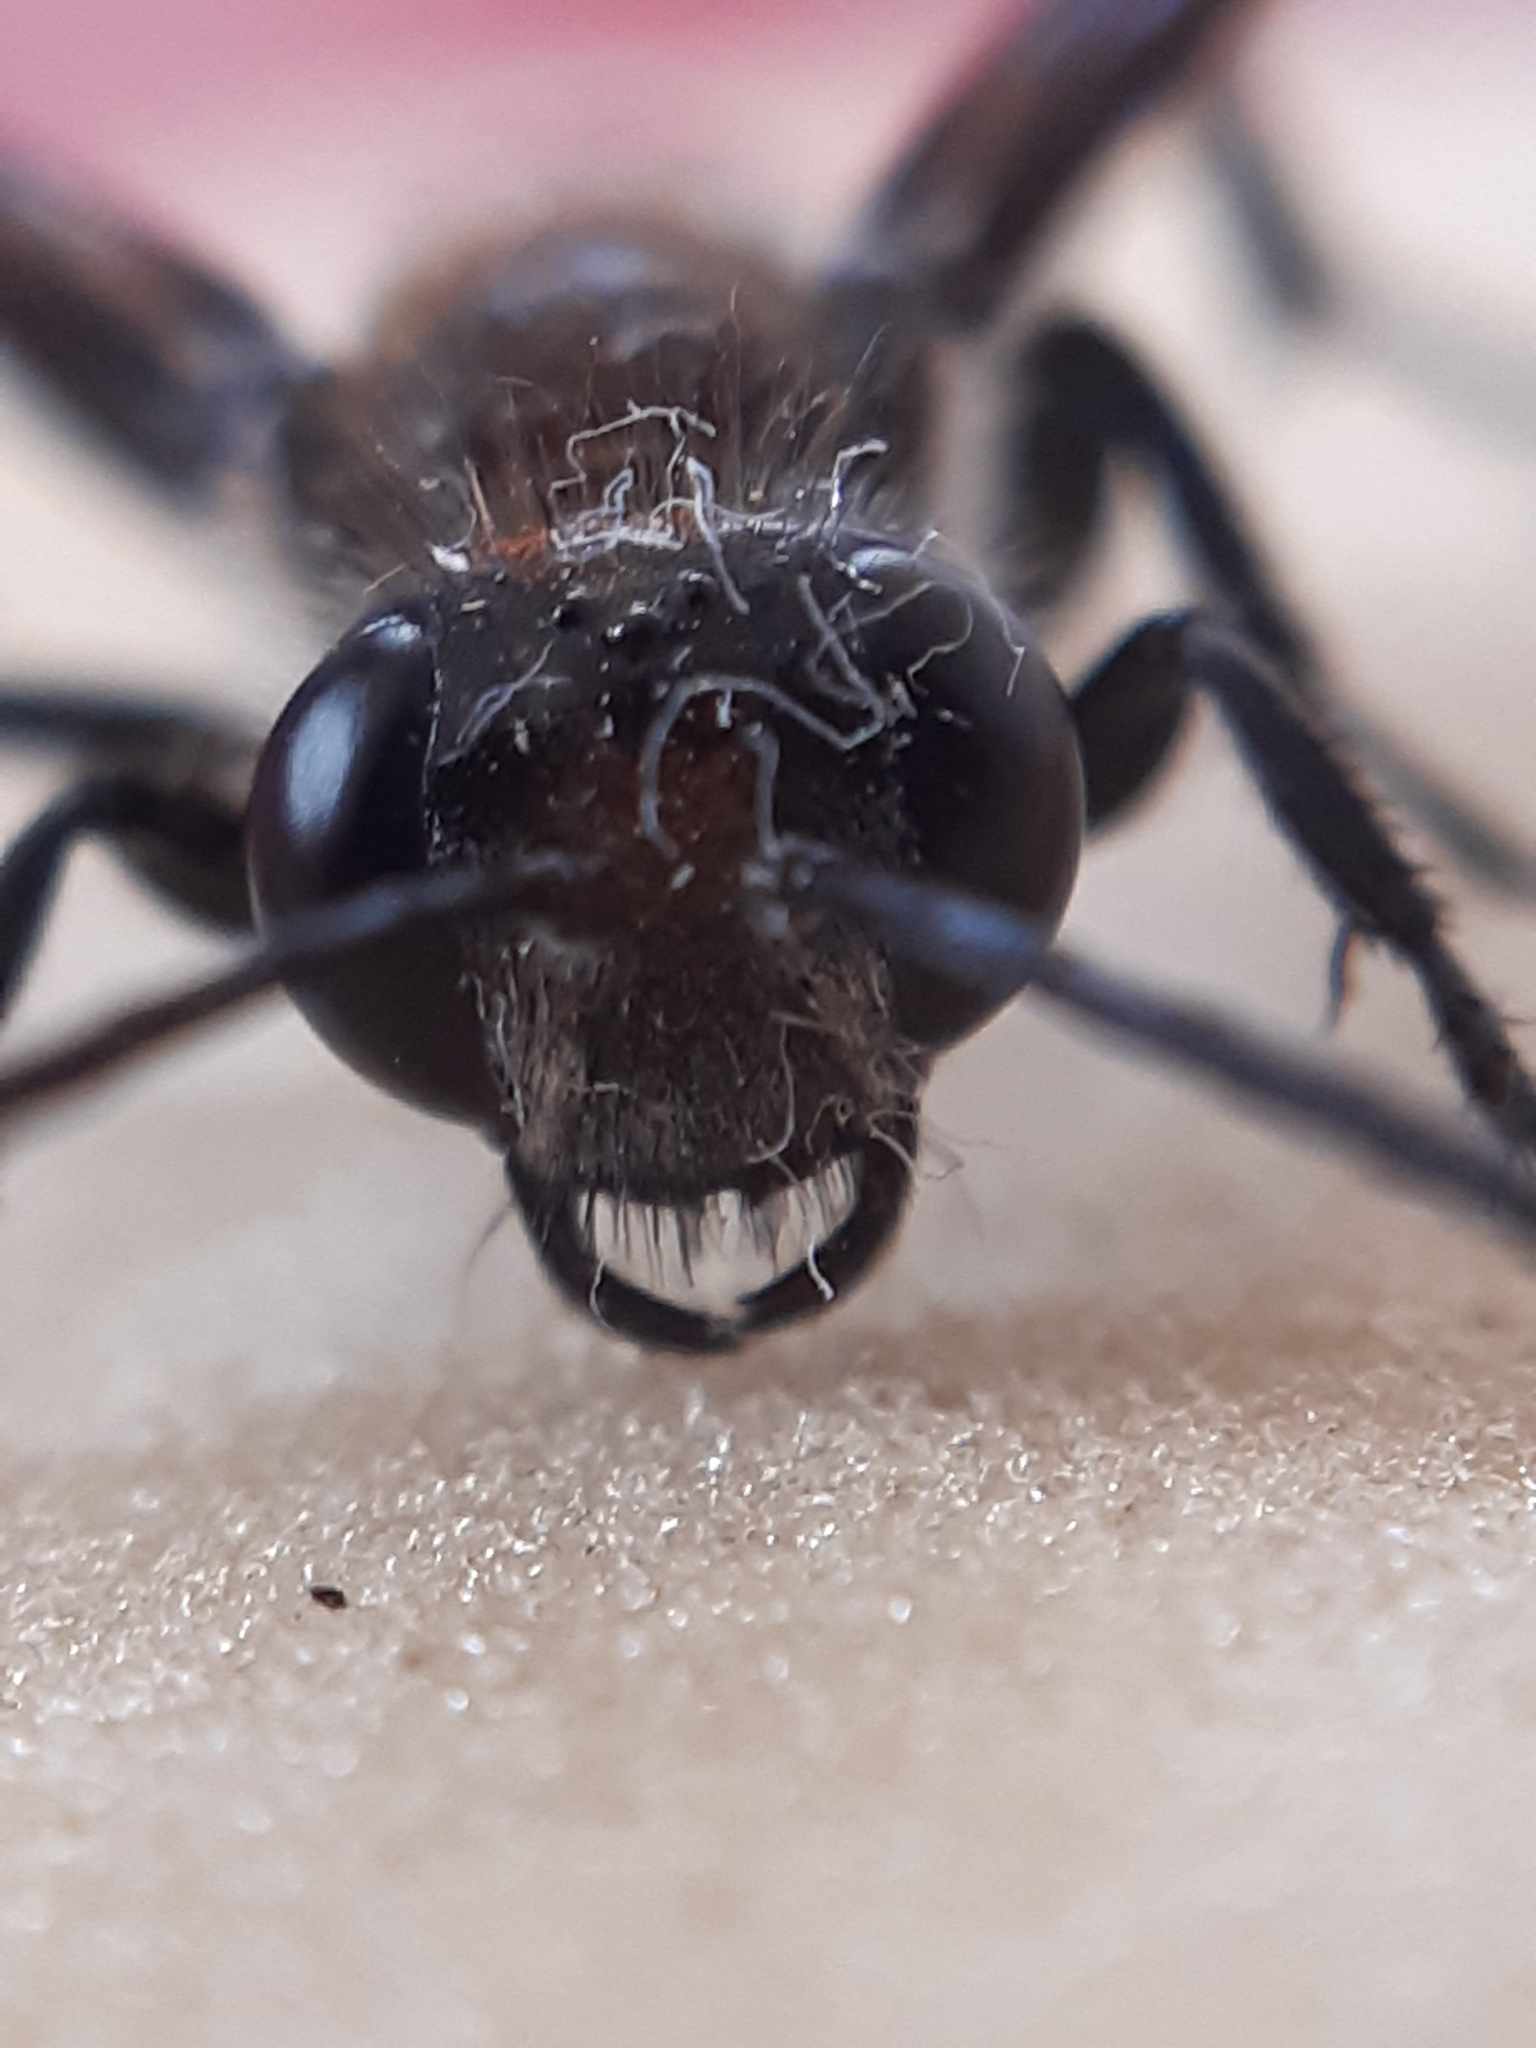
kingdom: Animalia
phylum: Arthropoda
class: Insecta
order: Hymenoptera
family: Sphecidae
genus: Isodontia
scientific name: Isodontia mexicana
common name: Mud dauber
